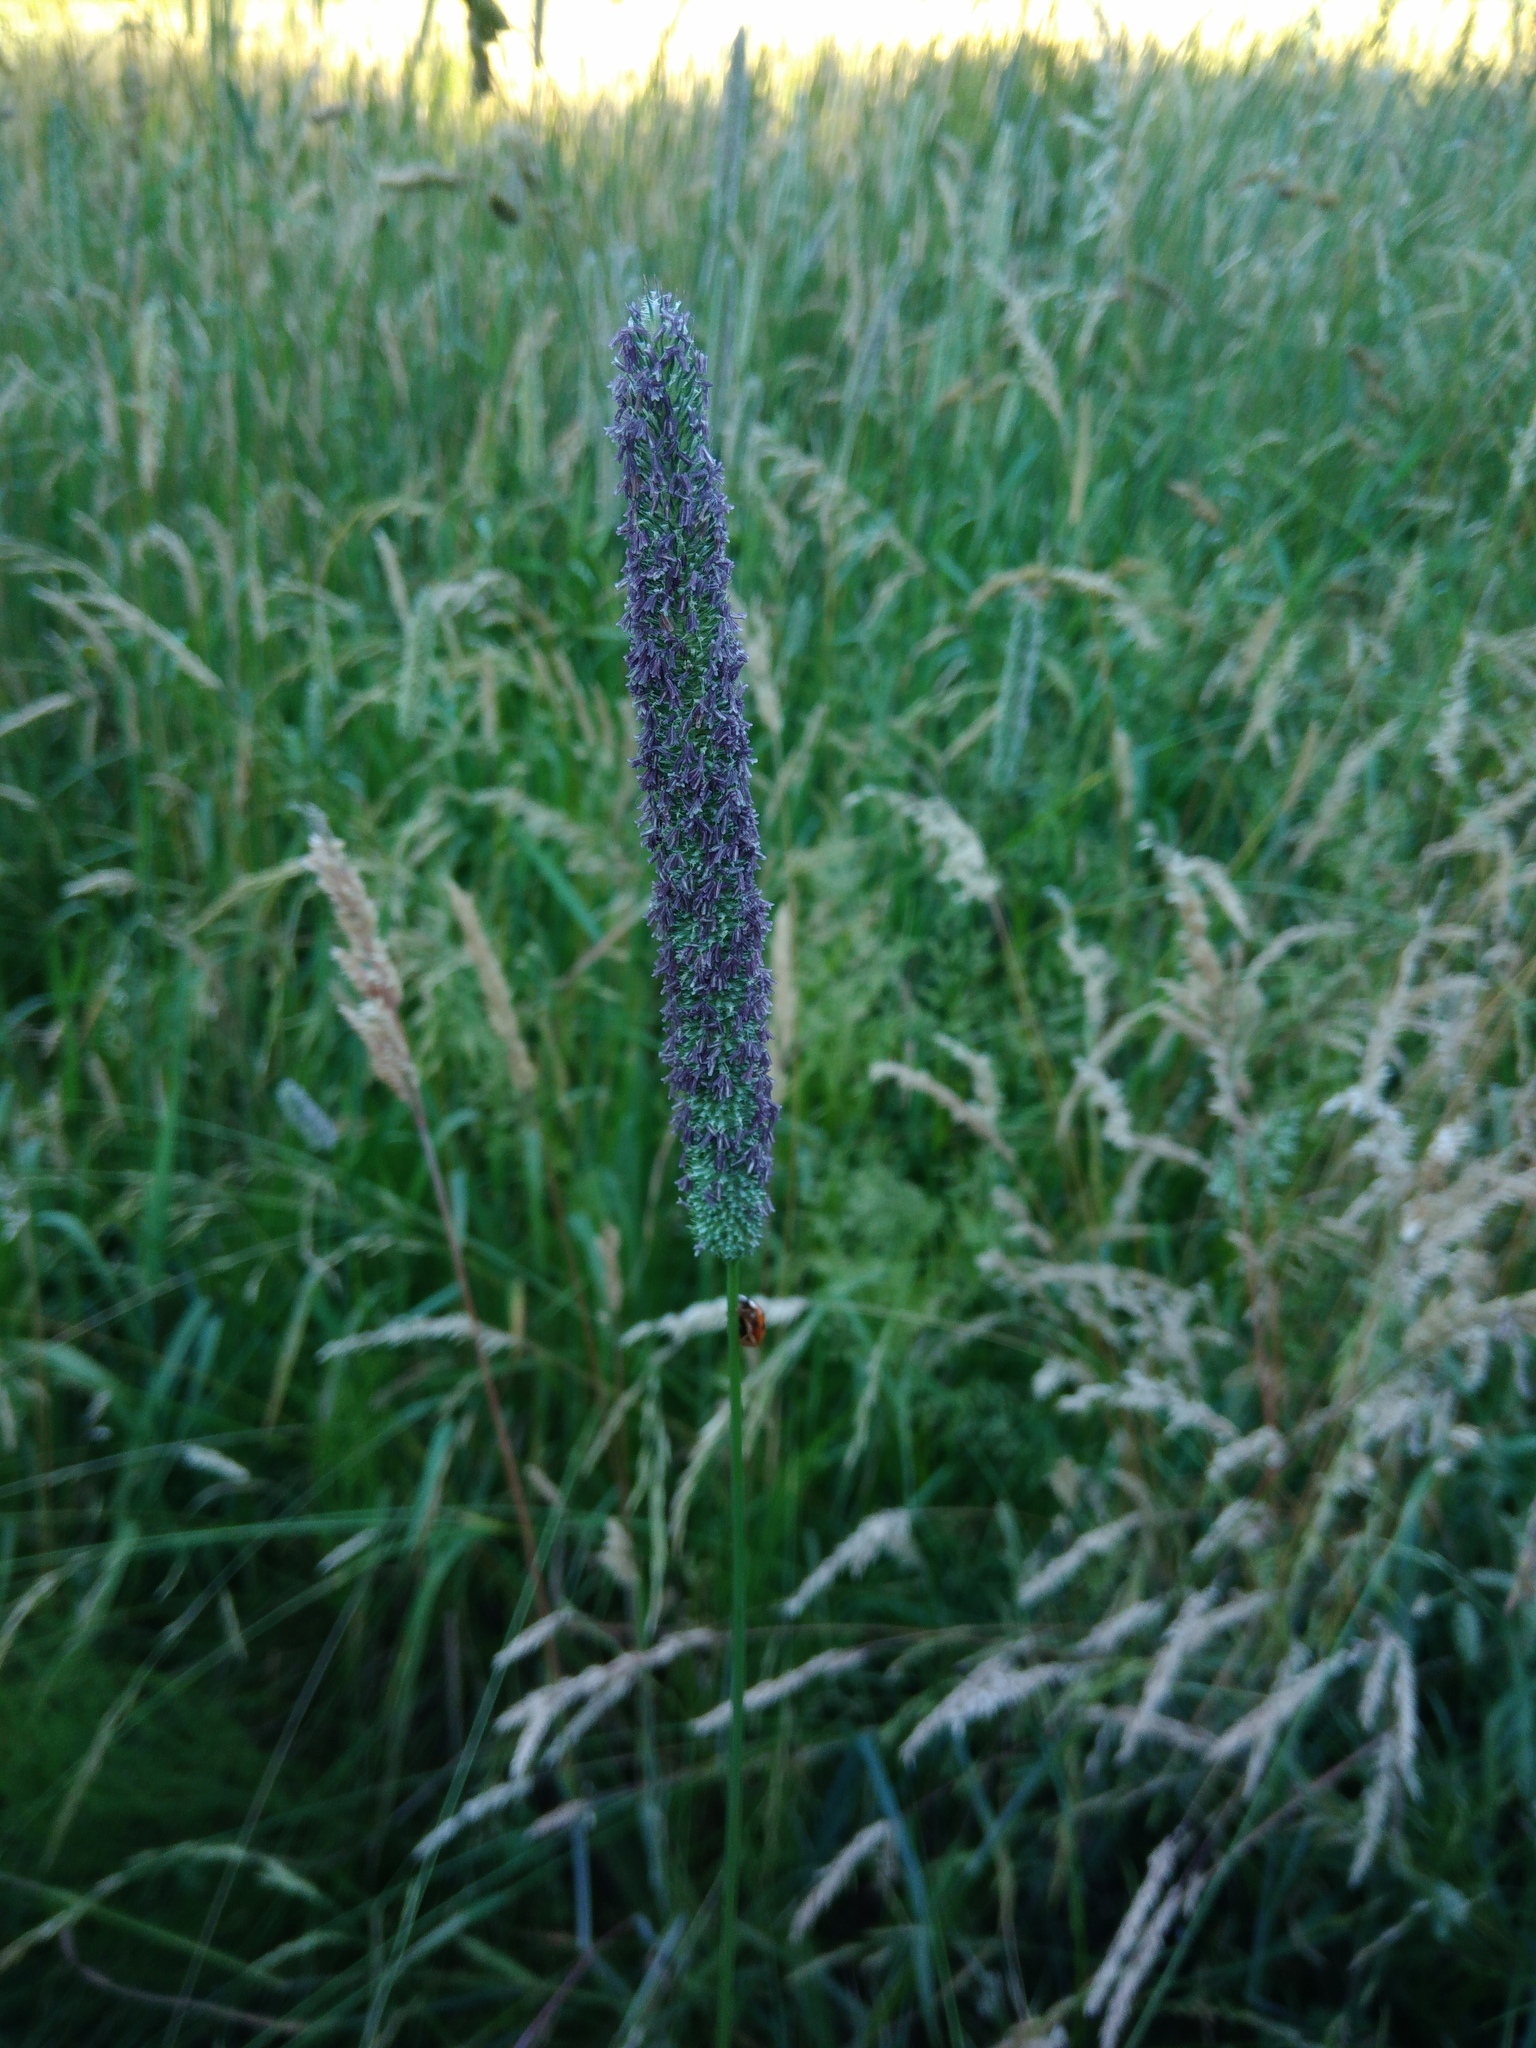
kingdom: Plantae
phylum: Tracheophyta
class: Liliopsida
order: Poales
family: Poaceae
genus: Phleum
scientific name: Phleum pratense
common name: Timothy grass
